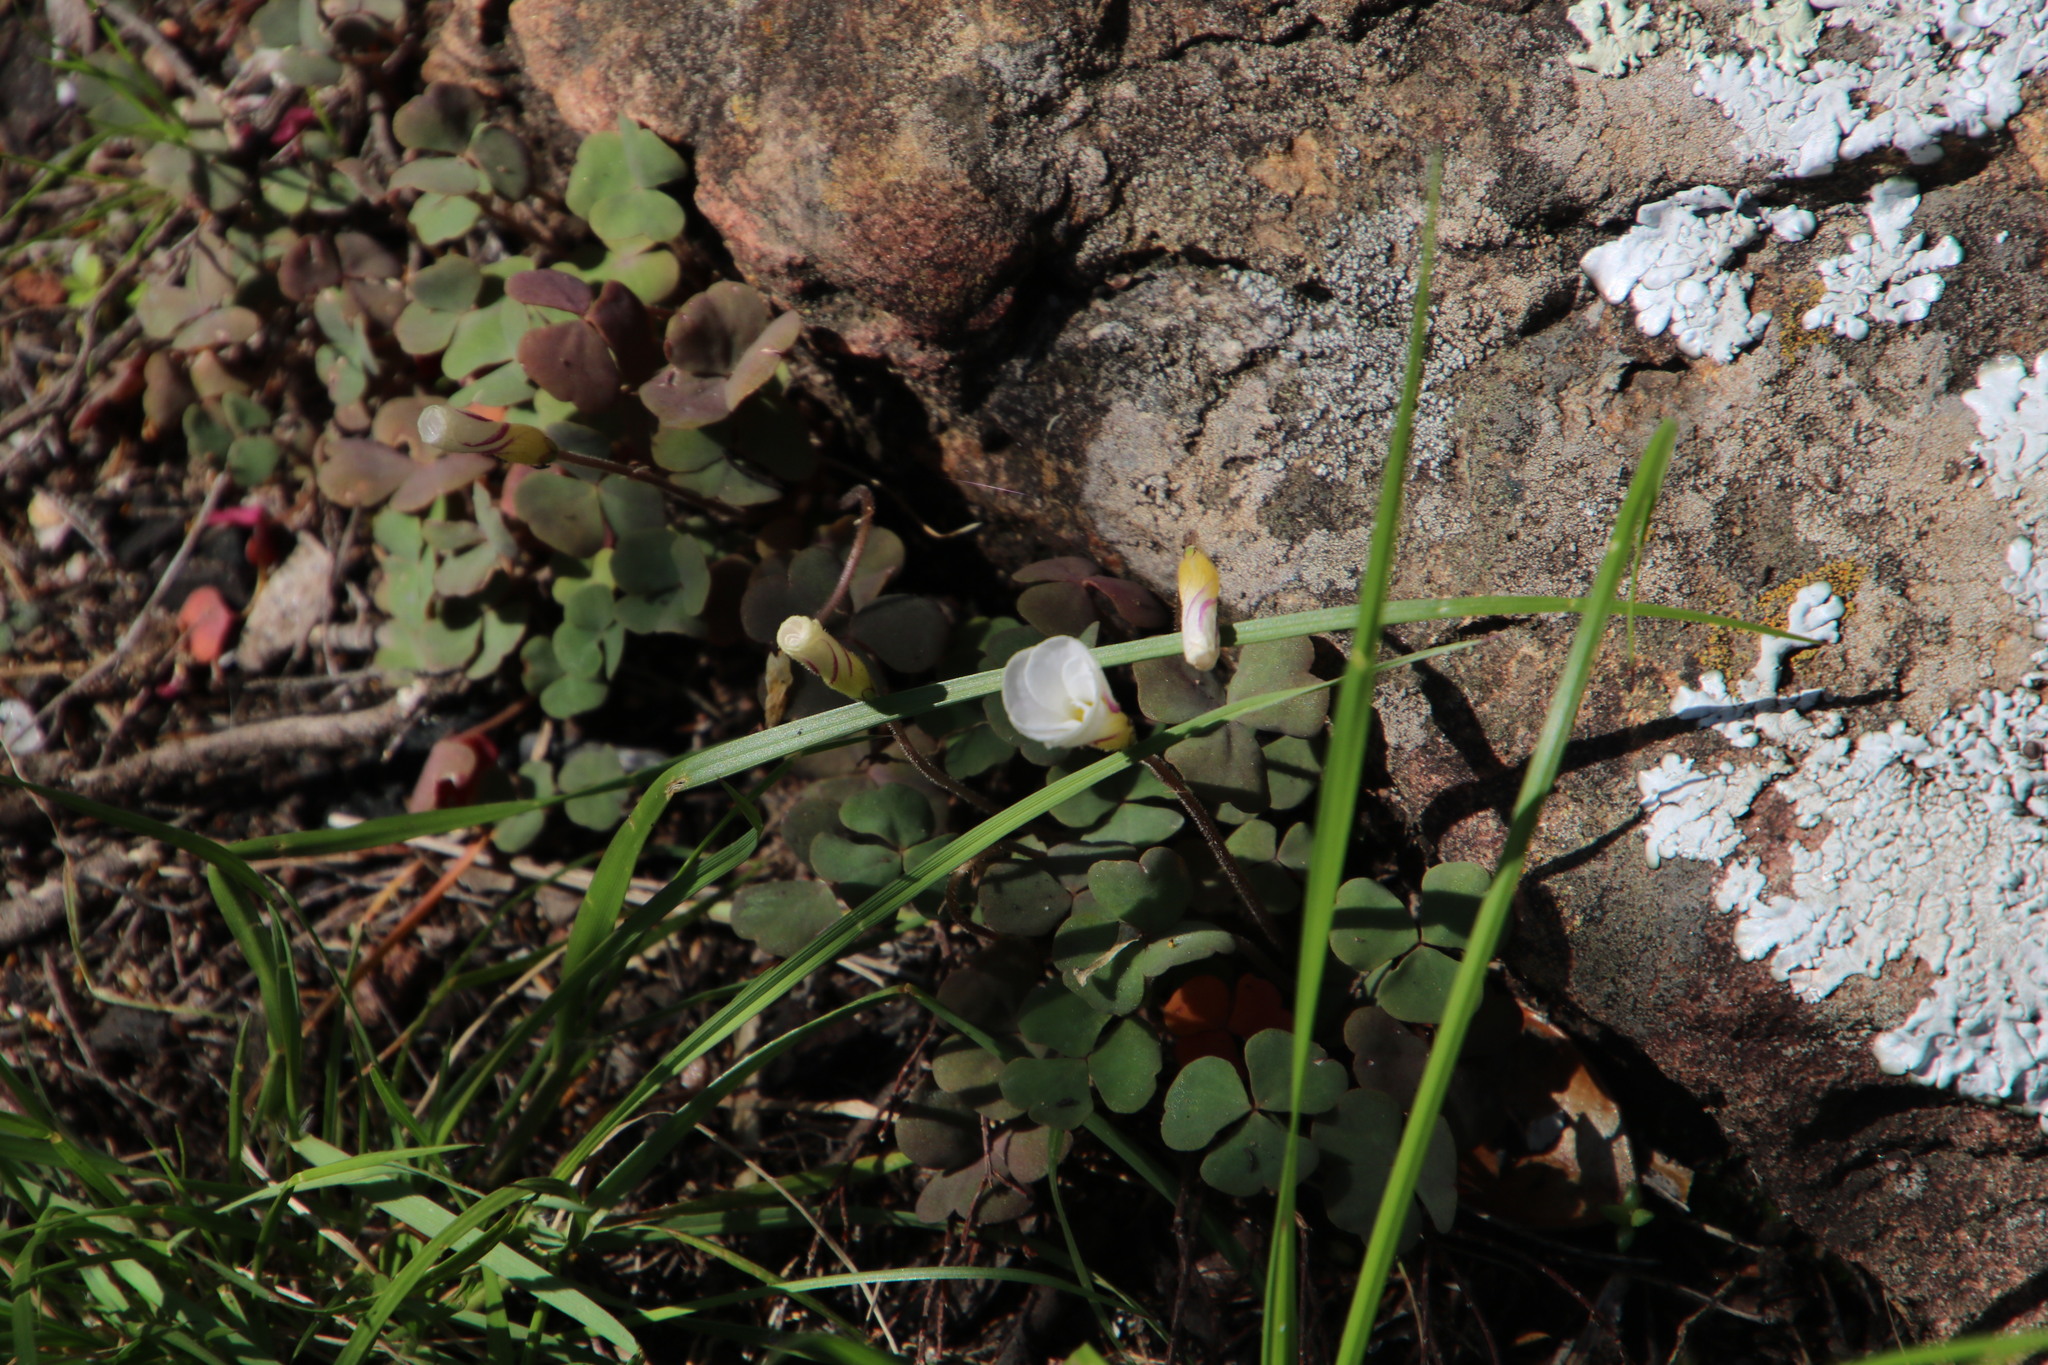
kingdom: Plantae
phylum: Tracheophyta
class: Magnoliopsida
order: Oxalidales
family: Oxalidaceae
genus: Oxalis
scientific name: Oxalis punctata
